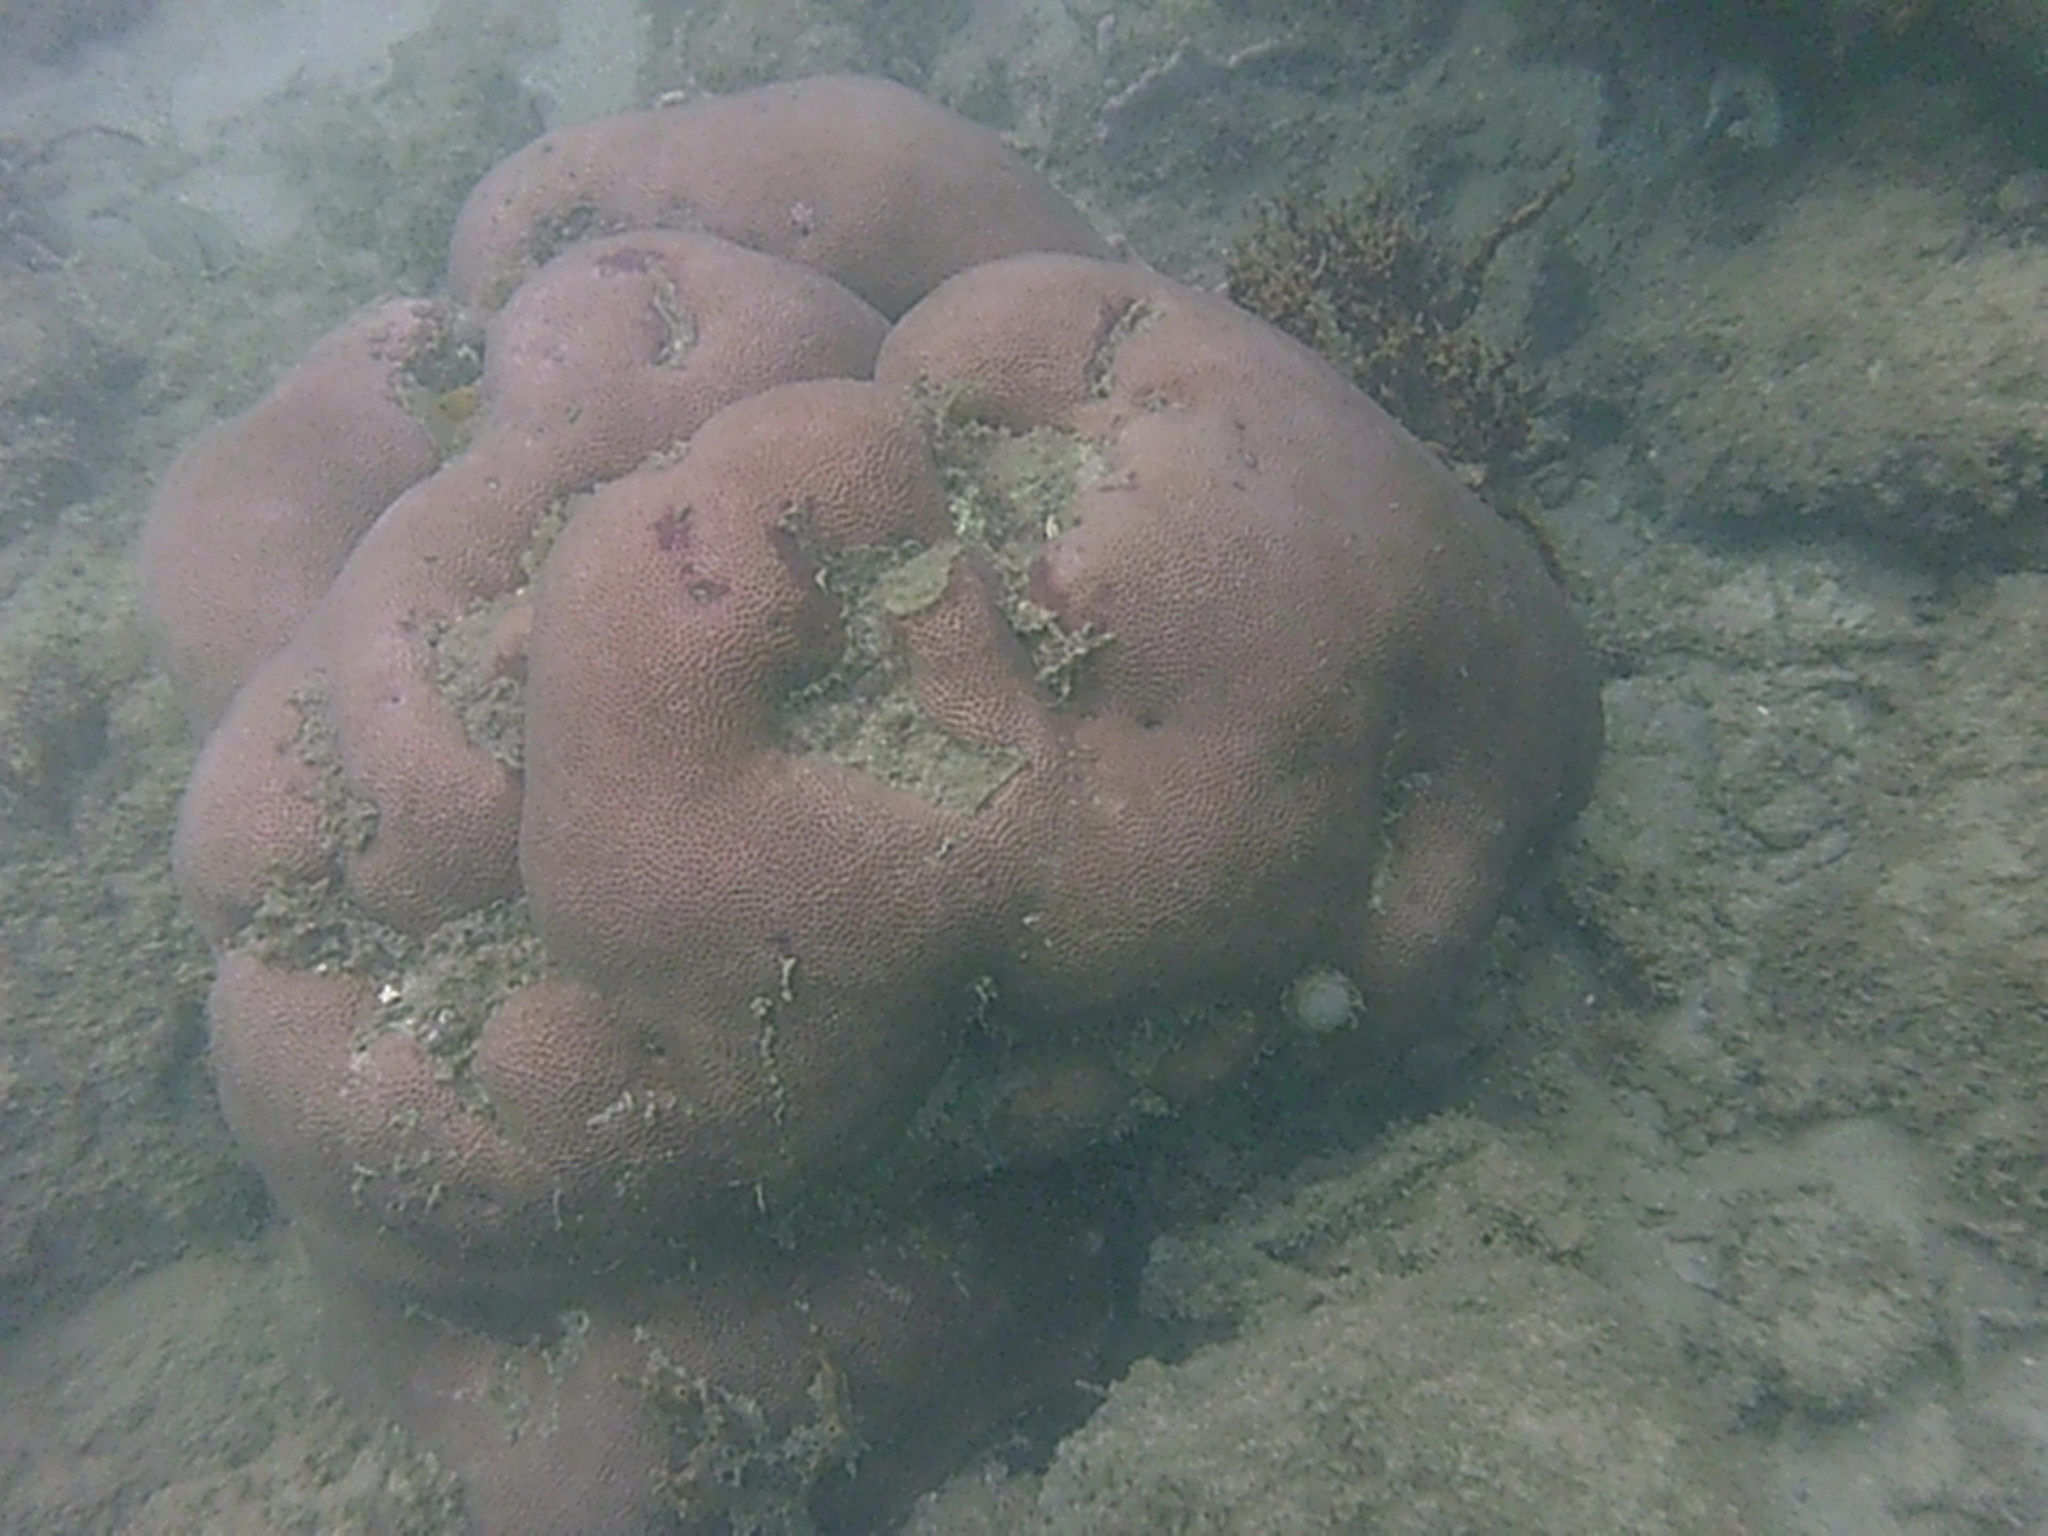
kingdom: Animalia
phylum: Cnidaria
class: Anthozoa
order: Scleractinia
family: Rhizangiidae
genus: Siderastrea
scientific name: Siderastrea siderea
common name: Massive starlet coral
